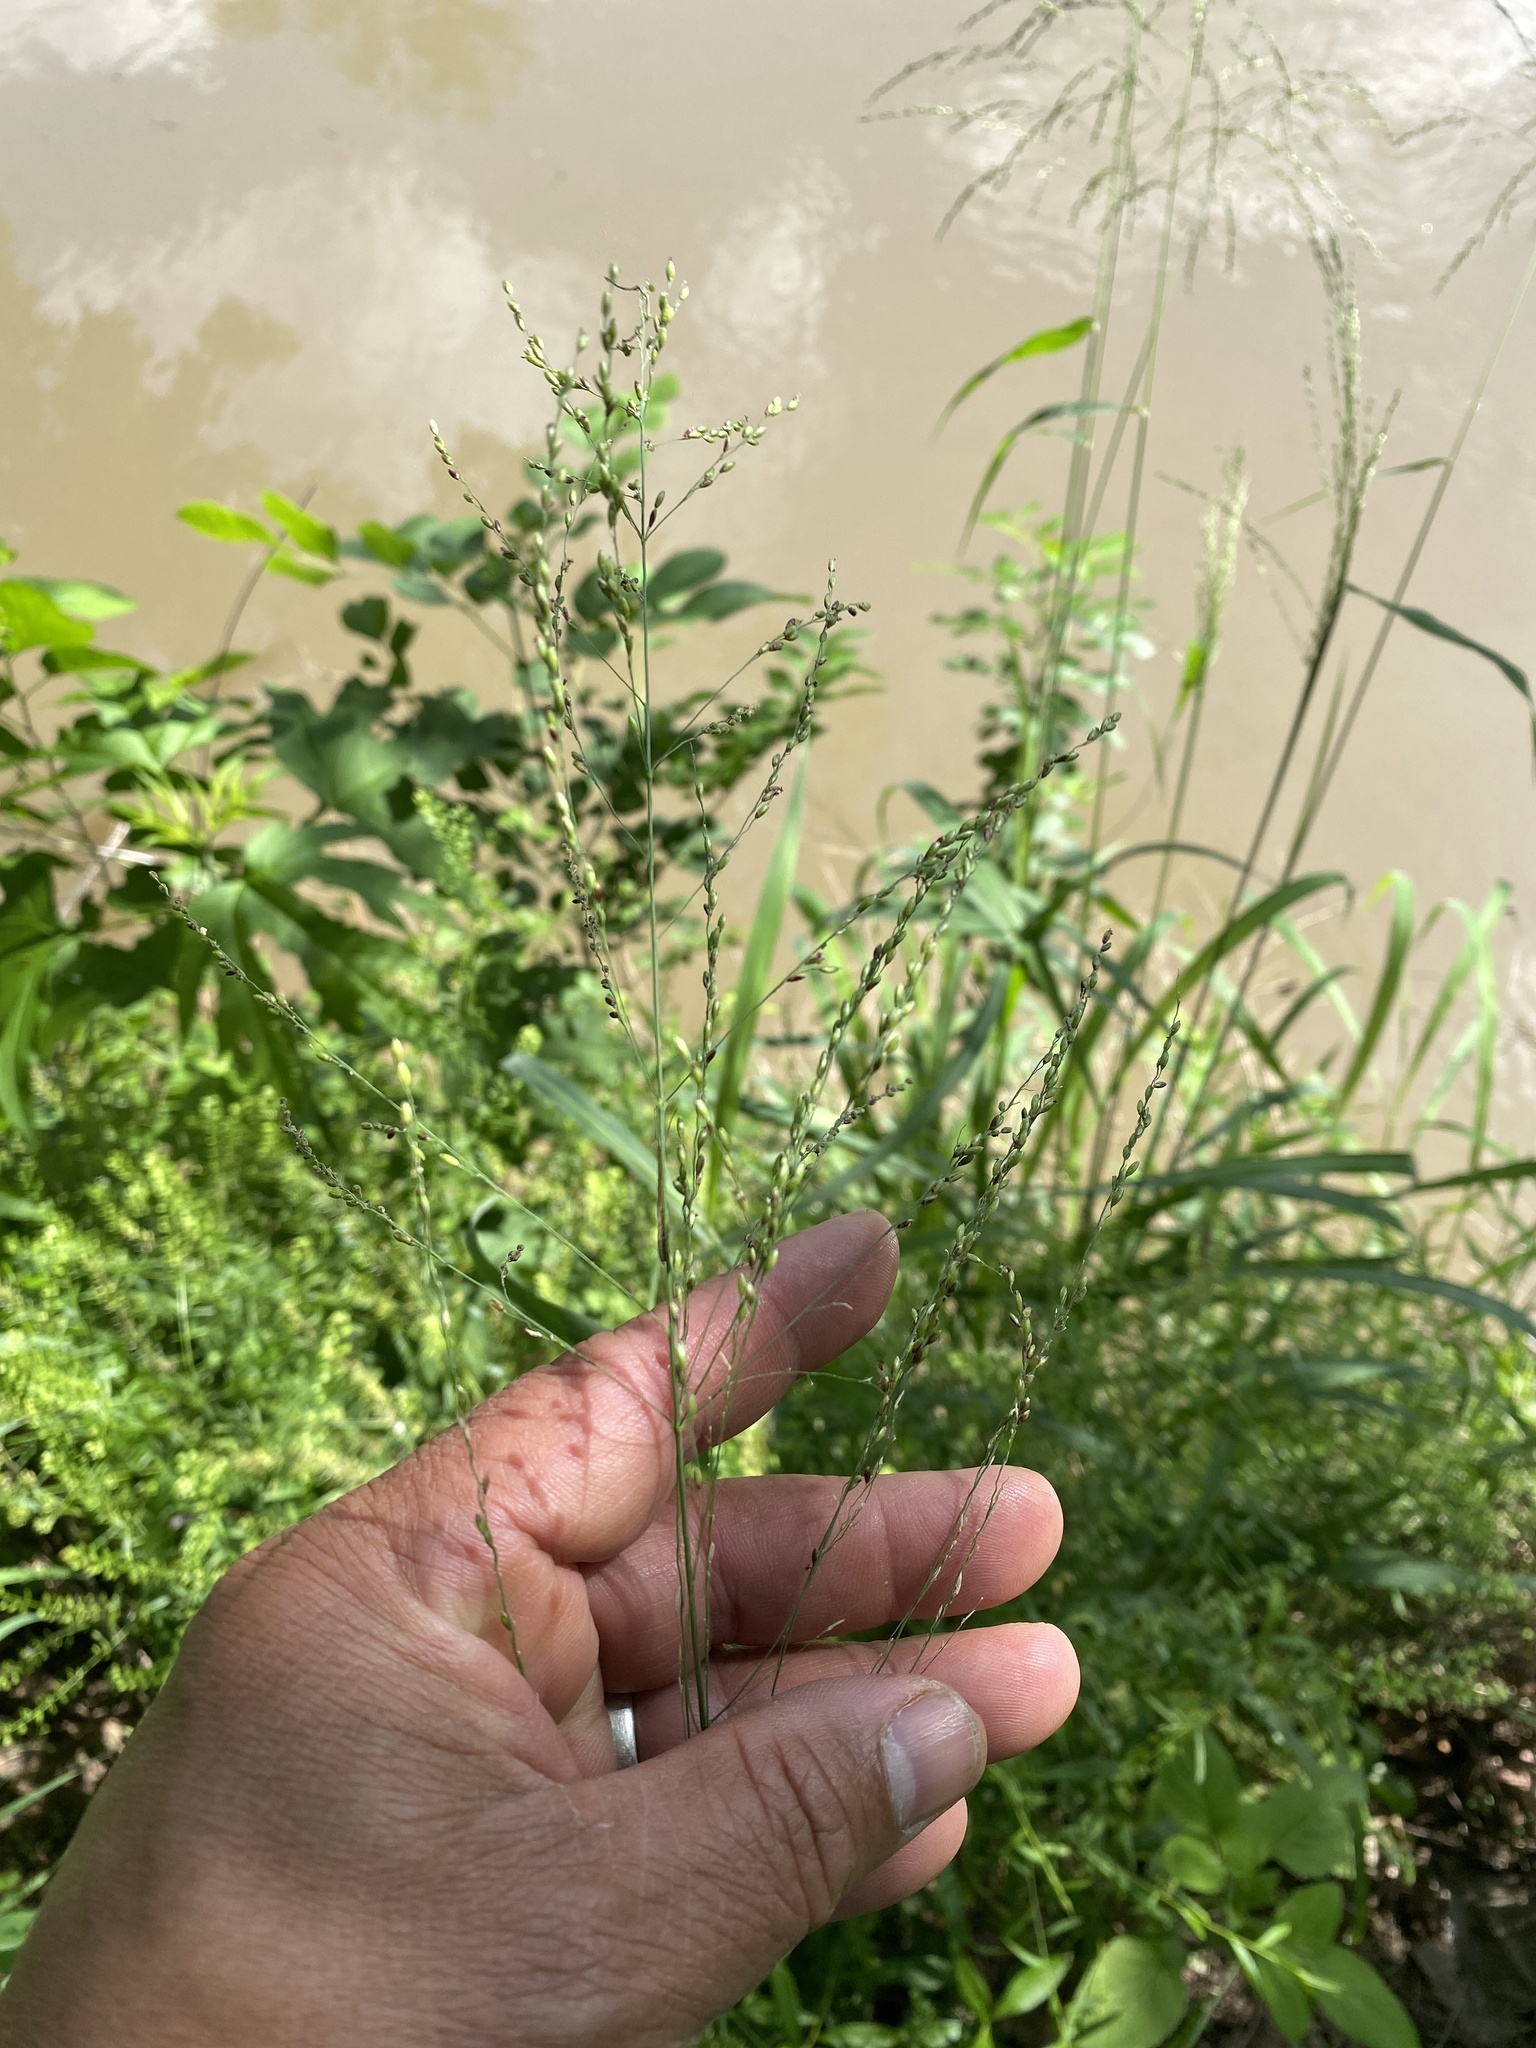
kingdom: Plantae
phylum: Tracheophyta
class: Liliopsida
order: Poales
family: Poaceae
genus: Megathyrsus
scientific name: Megathyrsus maximus
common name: Guineagrass
